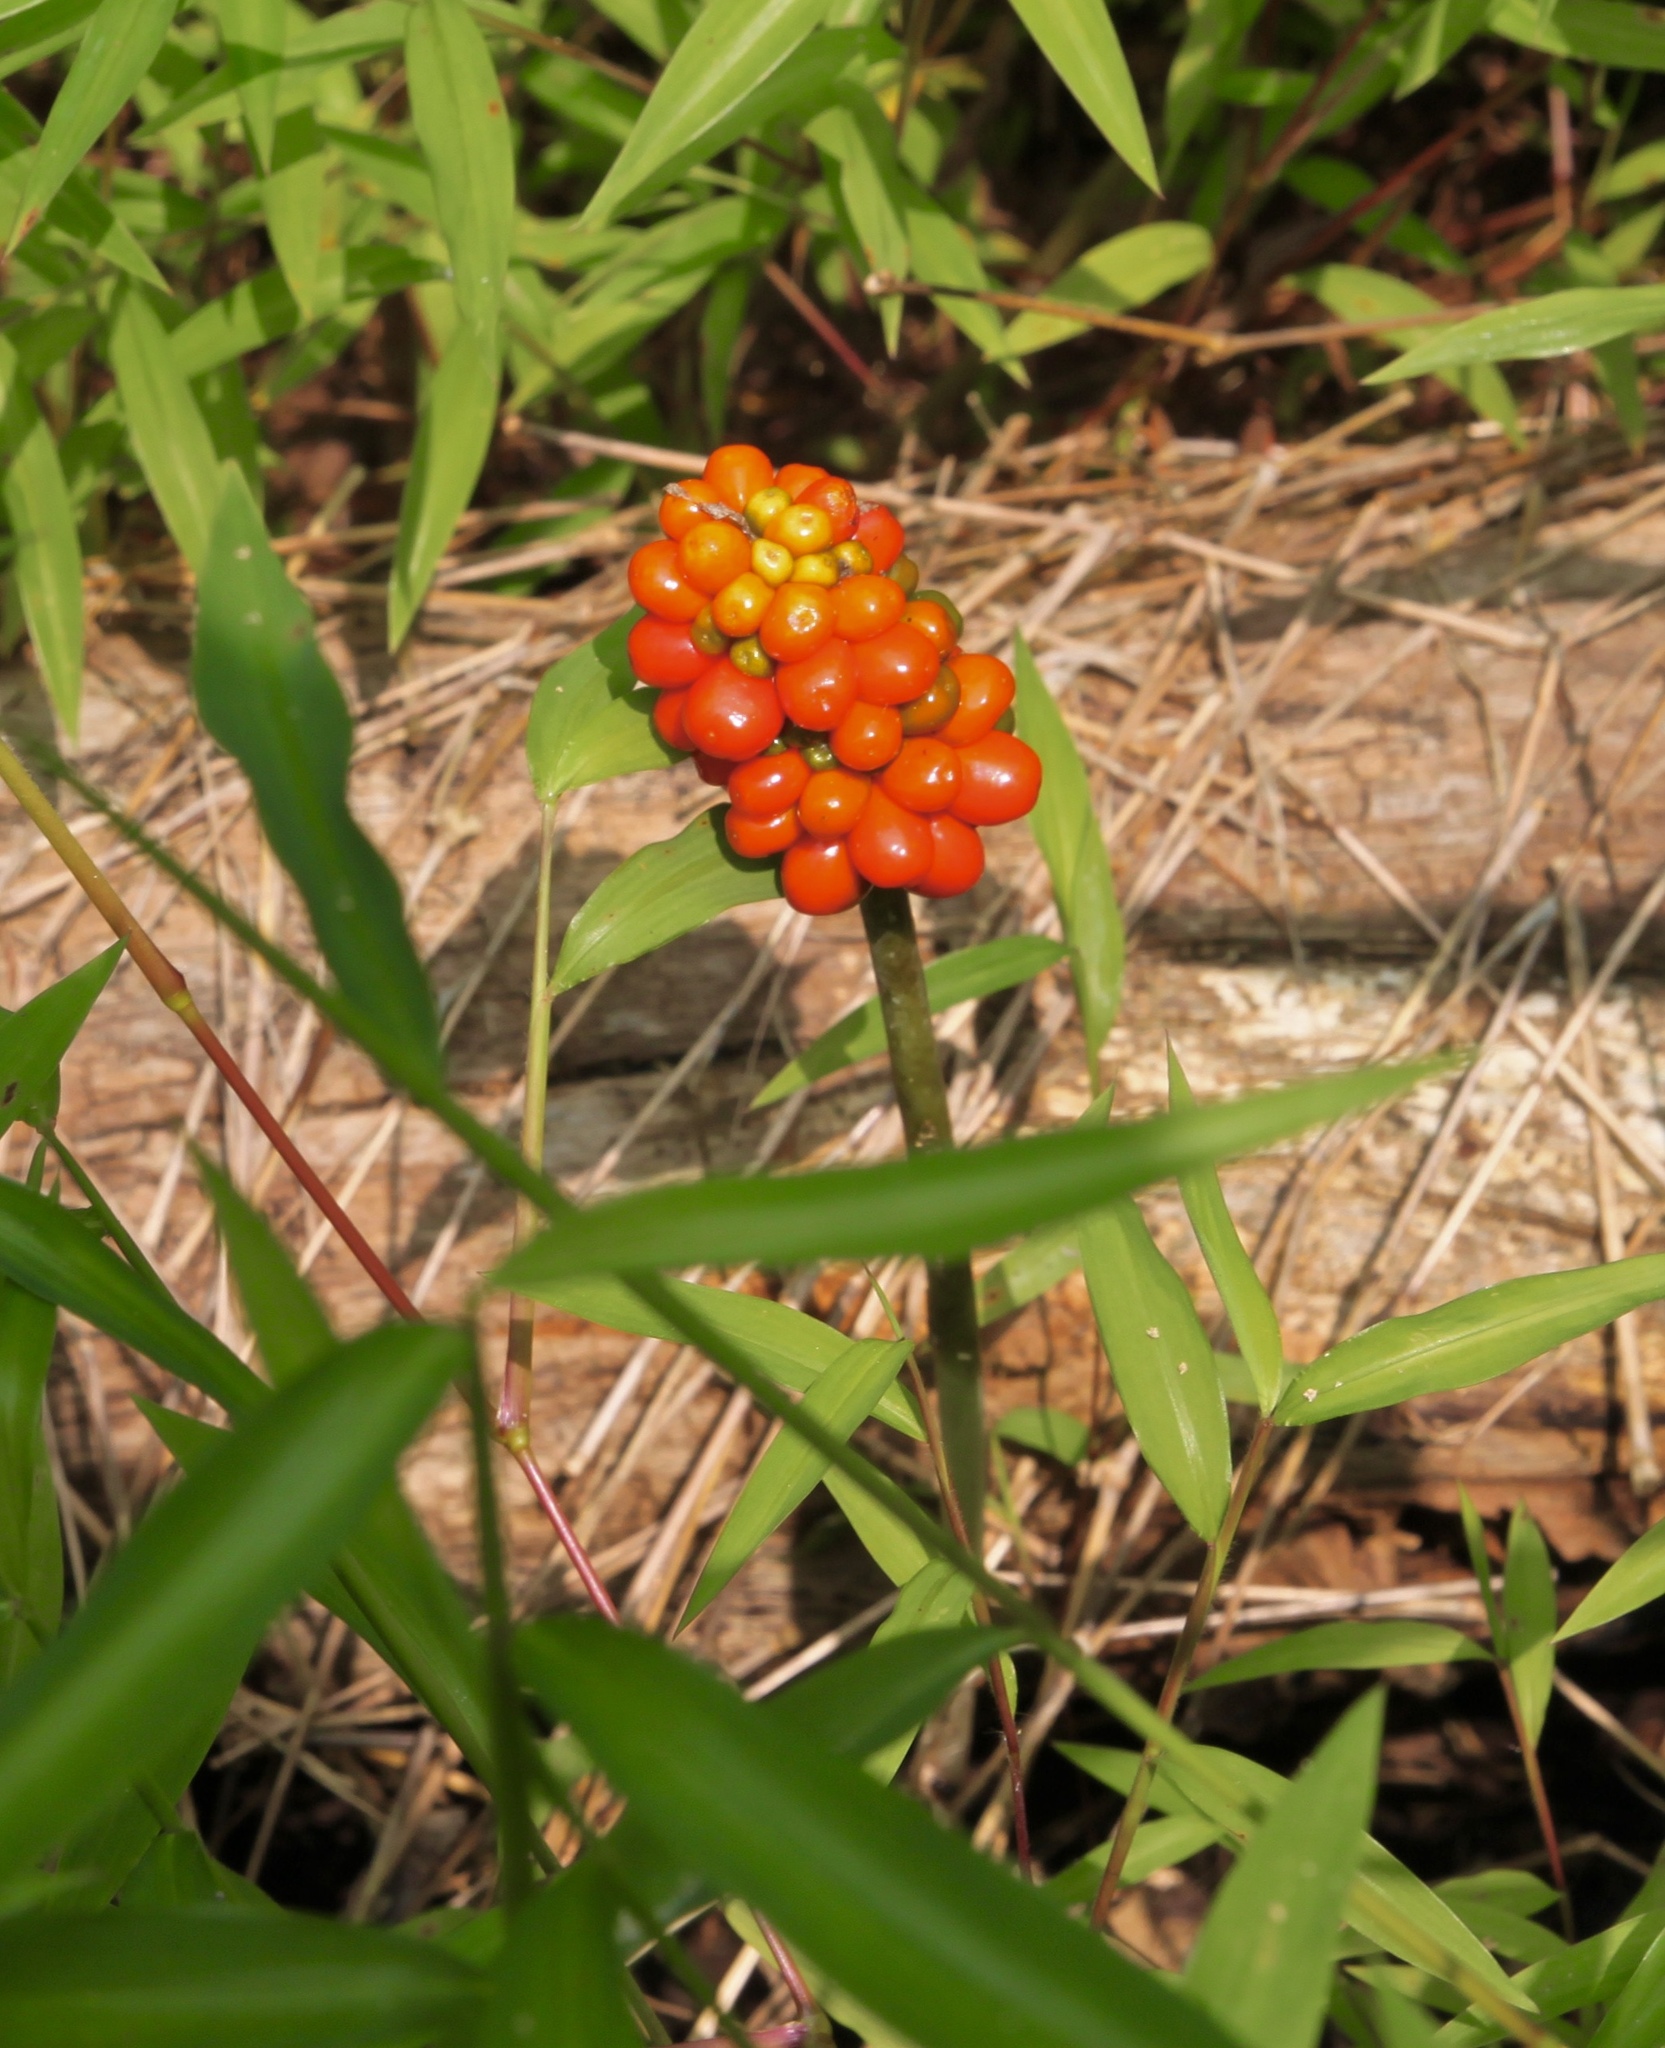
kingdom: Plantae
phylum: Tracheophyta
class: Liliopsida
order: Alismatales
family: Araceae
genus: Arisaema
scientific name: Arisaema triphyllum
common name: Jack-in-the-pulpit
